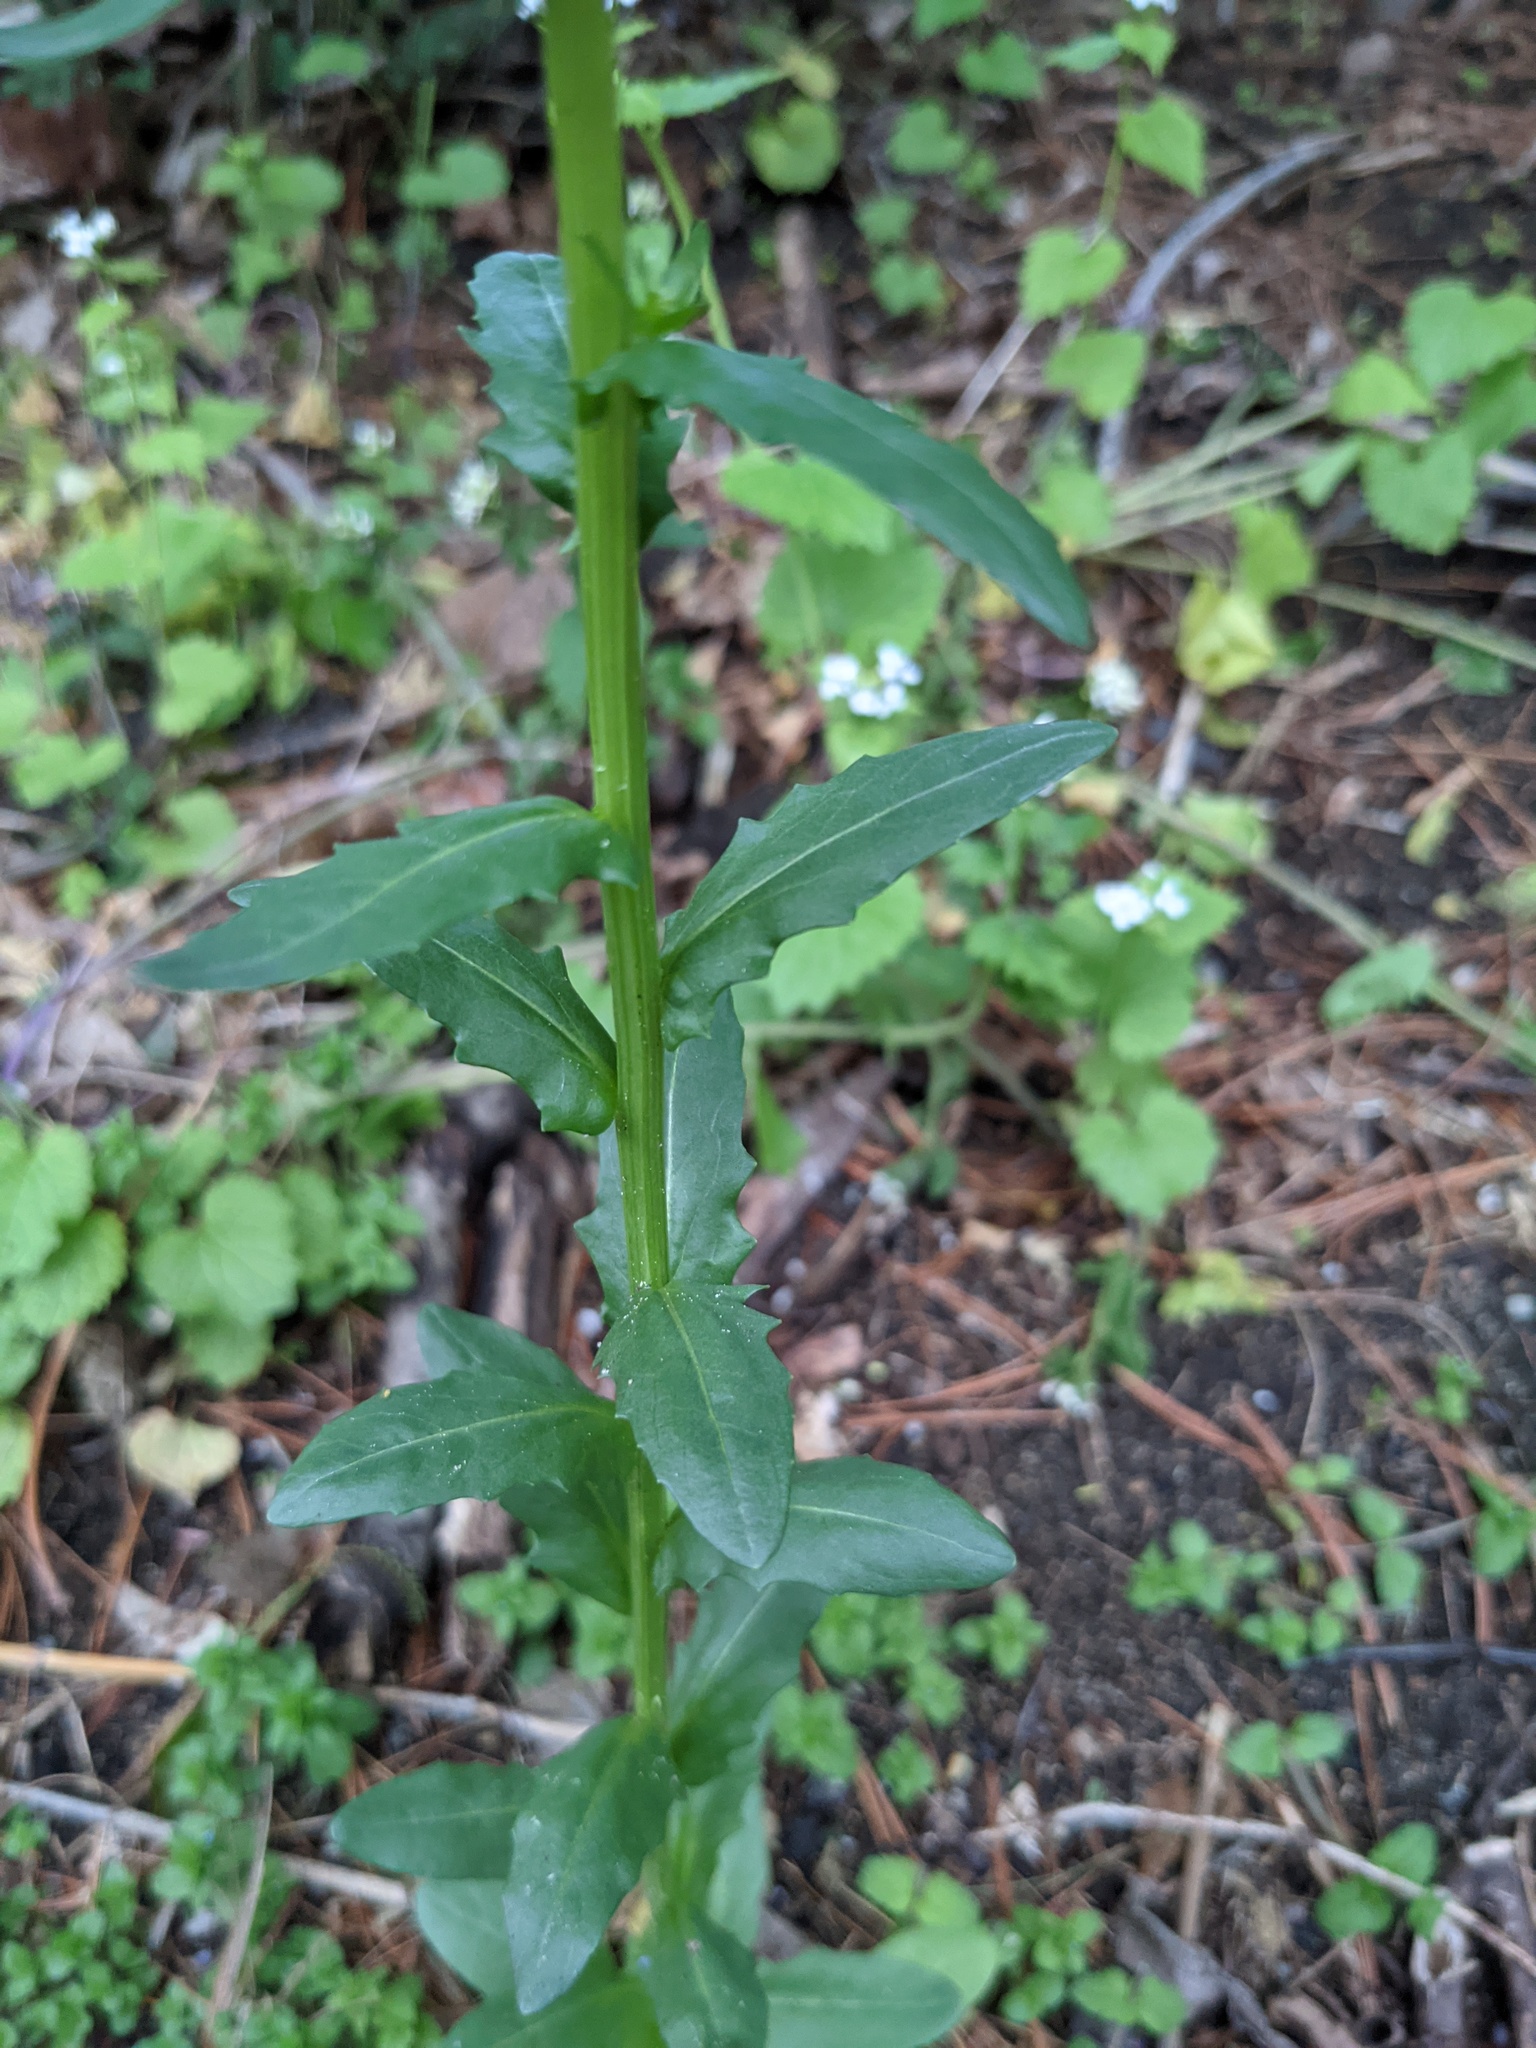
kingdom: Plantae
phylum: Tracheophyta
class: Magnoliopsida
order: Brassicales
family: Brassicaceae
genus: Thlaspi
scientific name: Thlaspi arvense
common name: Field pennycress
